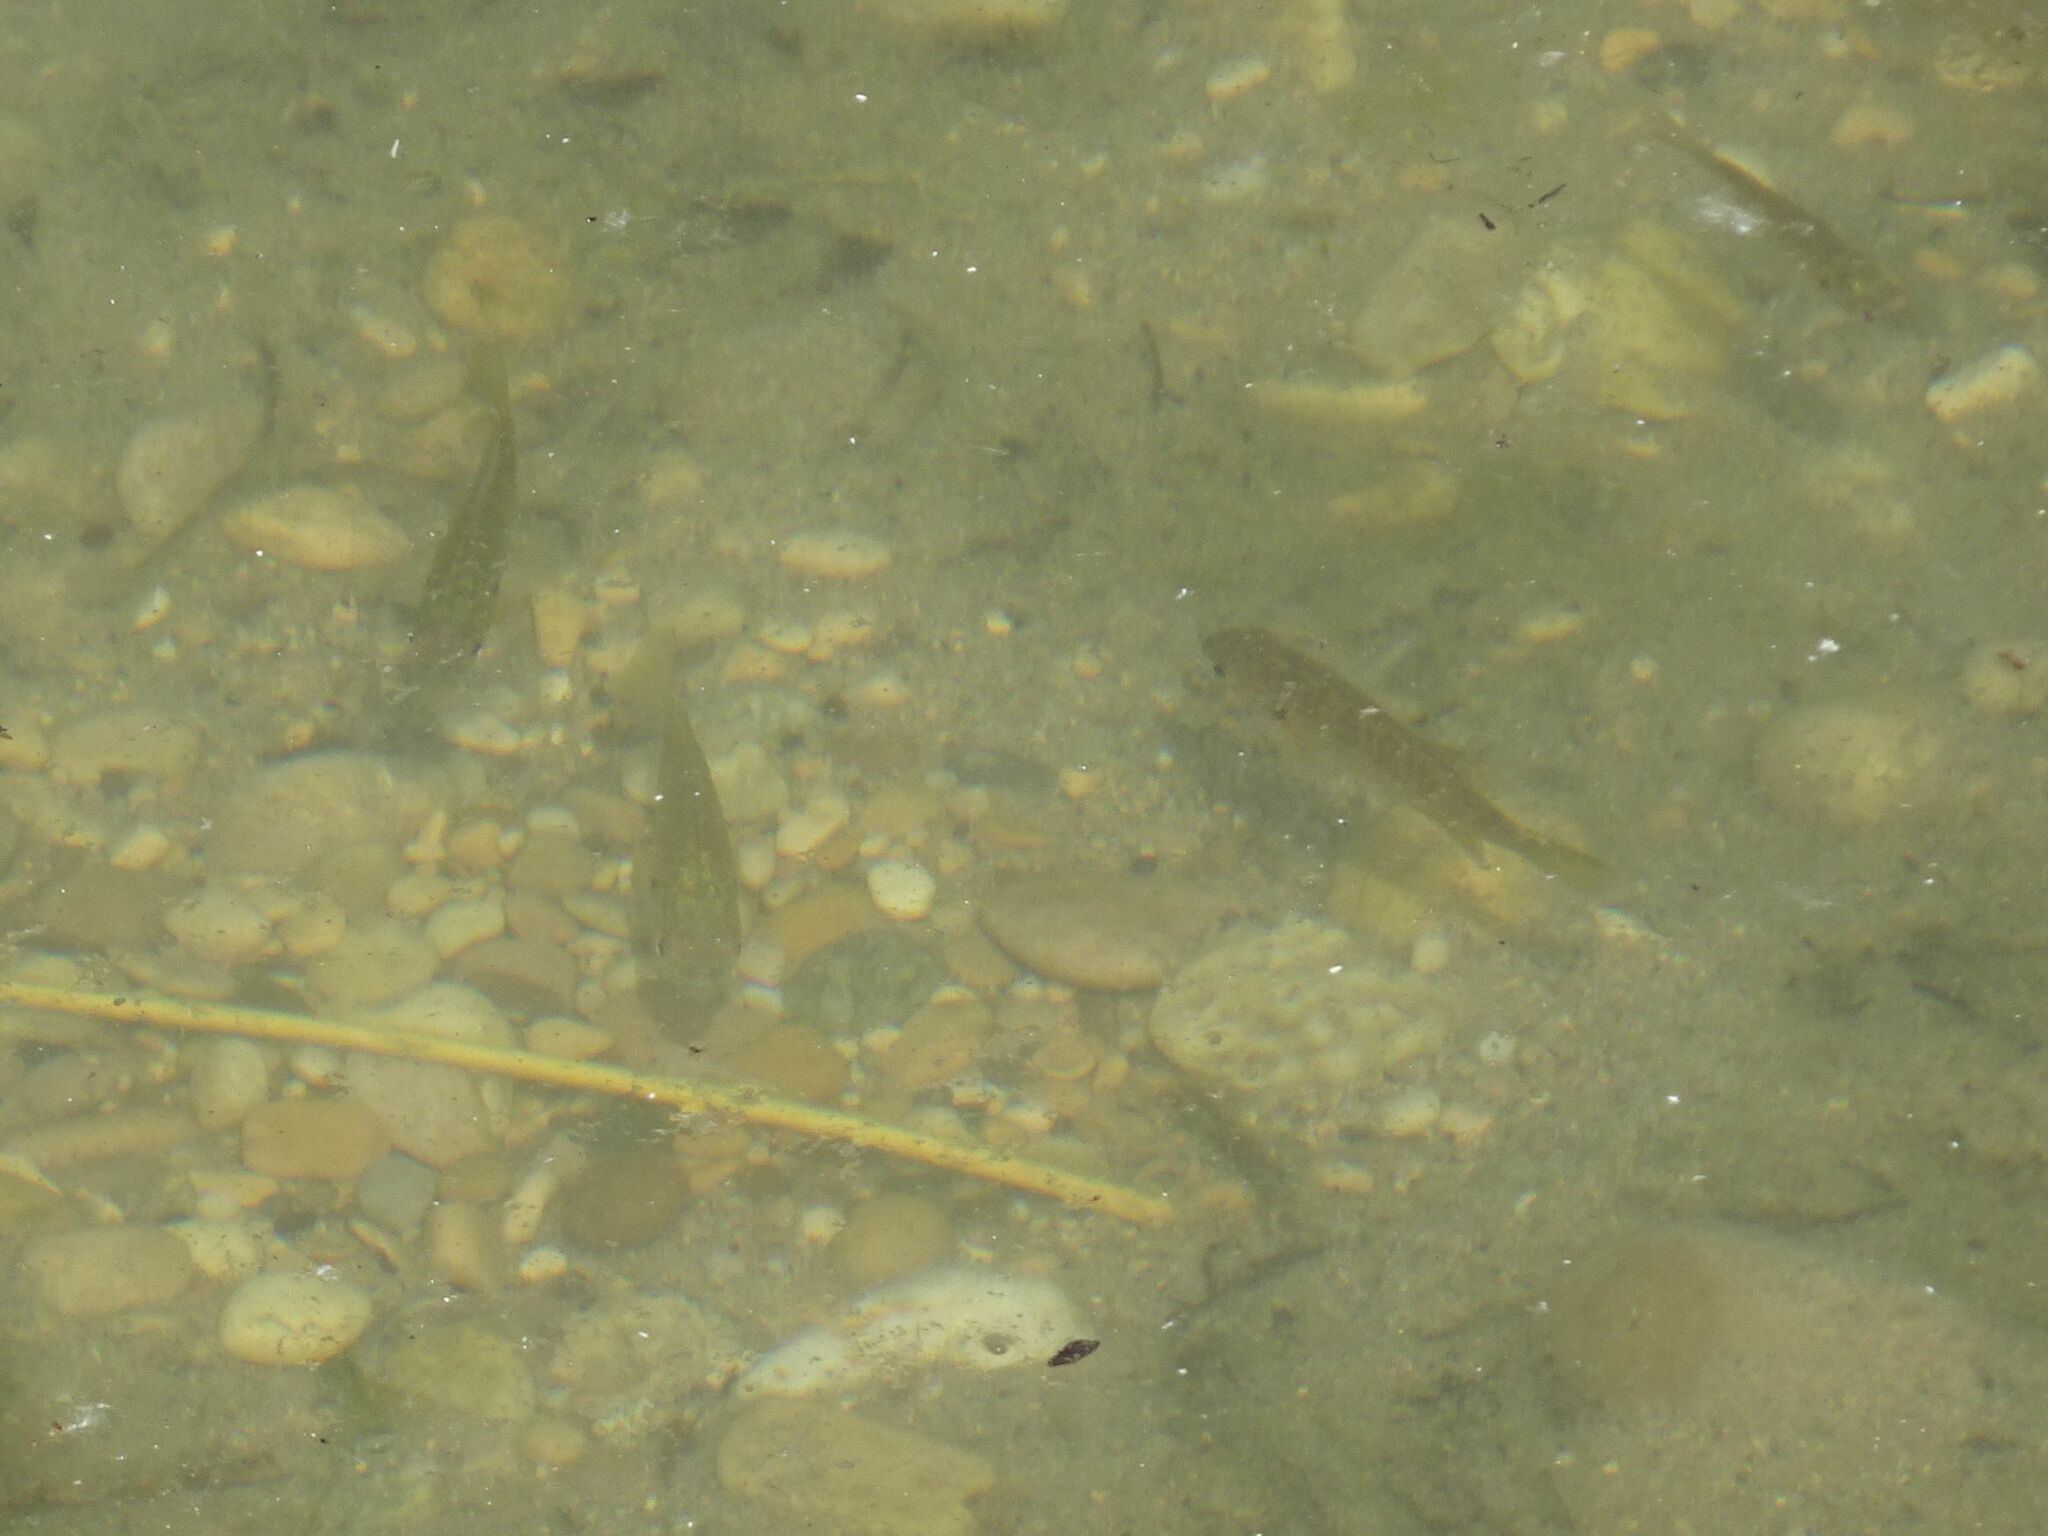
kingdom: Animalia
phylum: Chordata
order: Perciformes
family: Centrarchidae
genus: Lepomis
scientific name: Lepomis gibbosus
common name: Pumpkinseed
